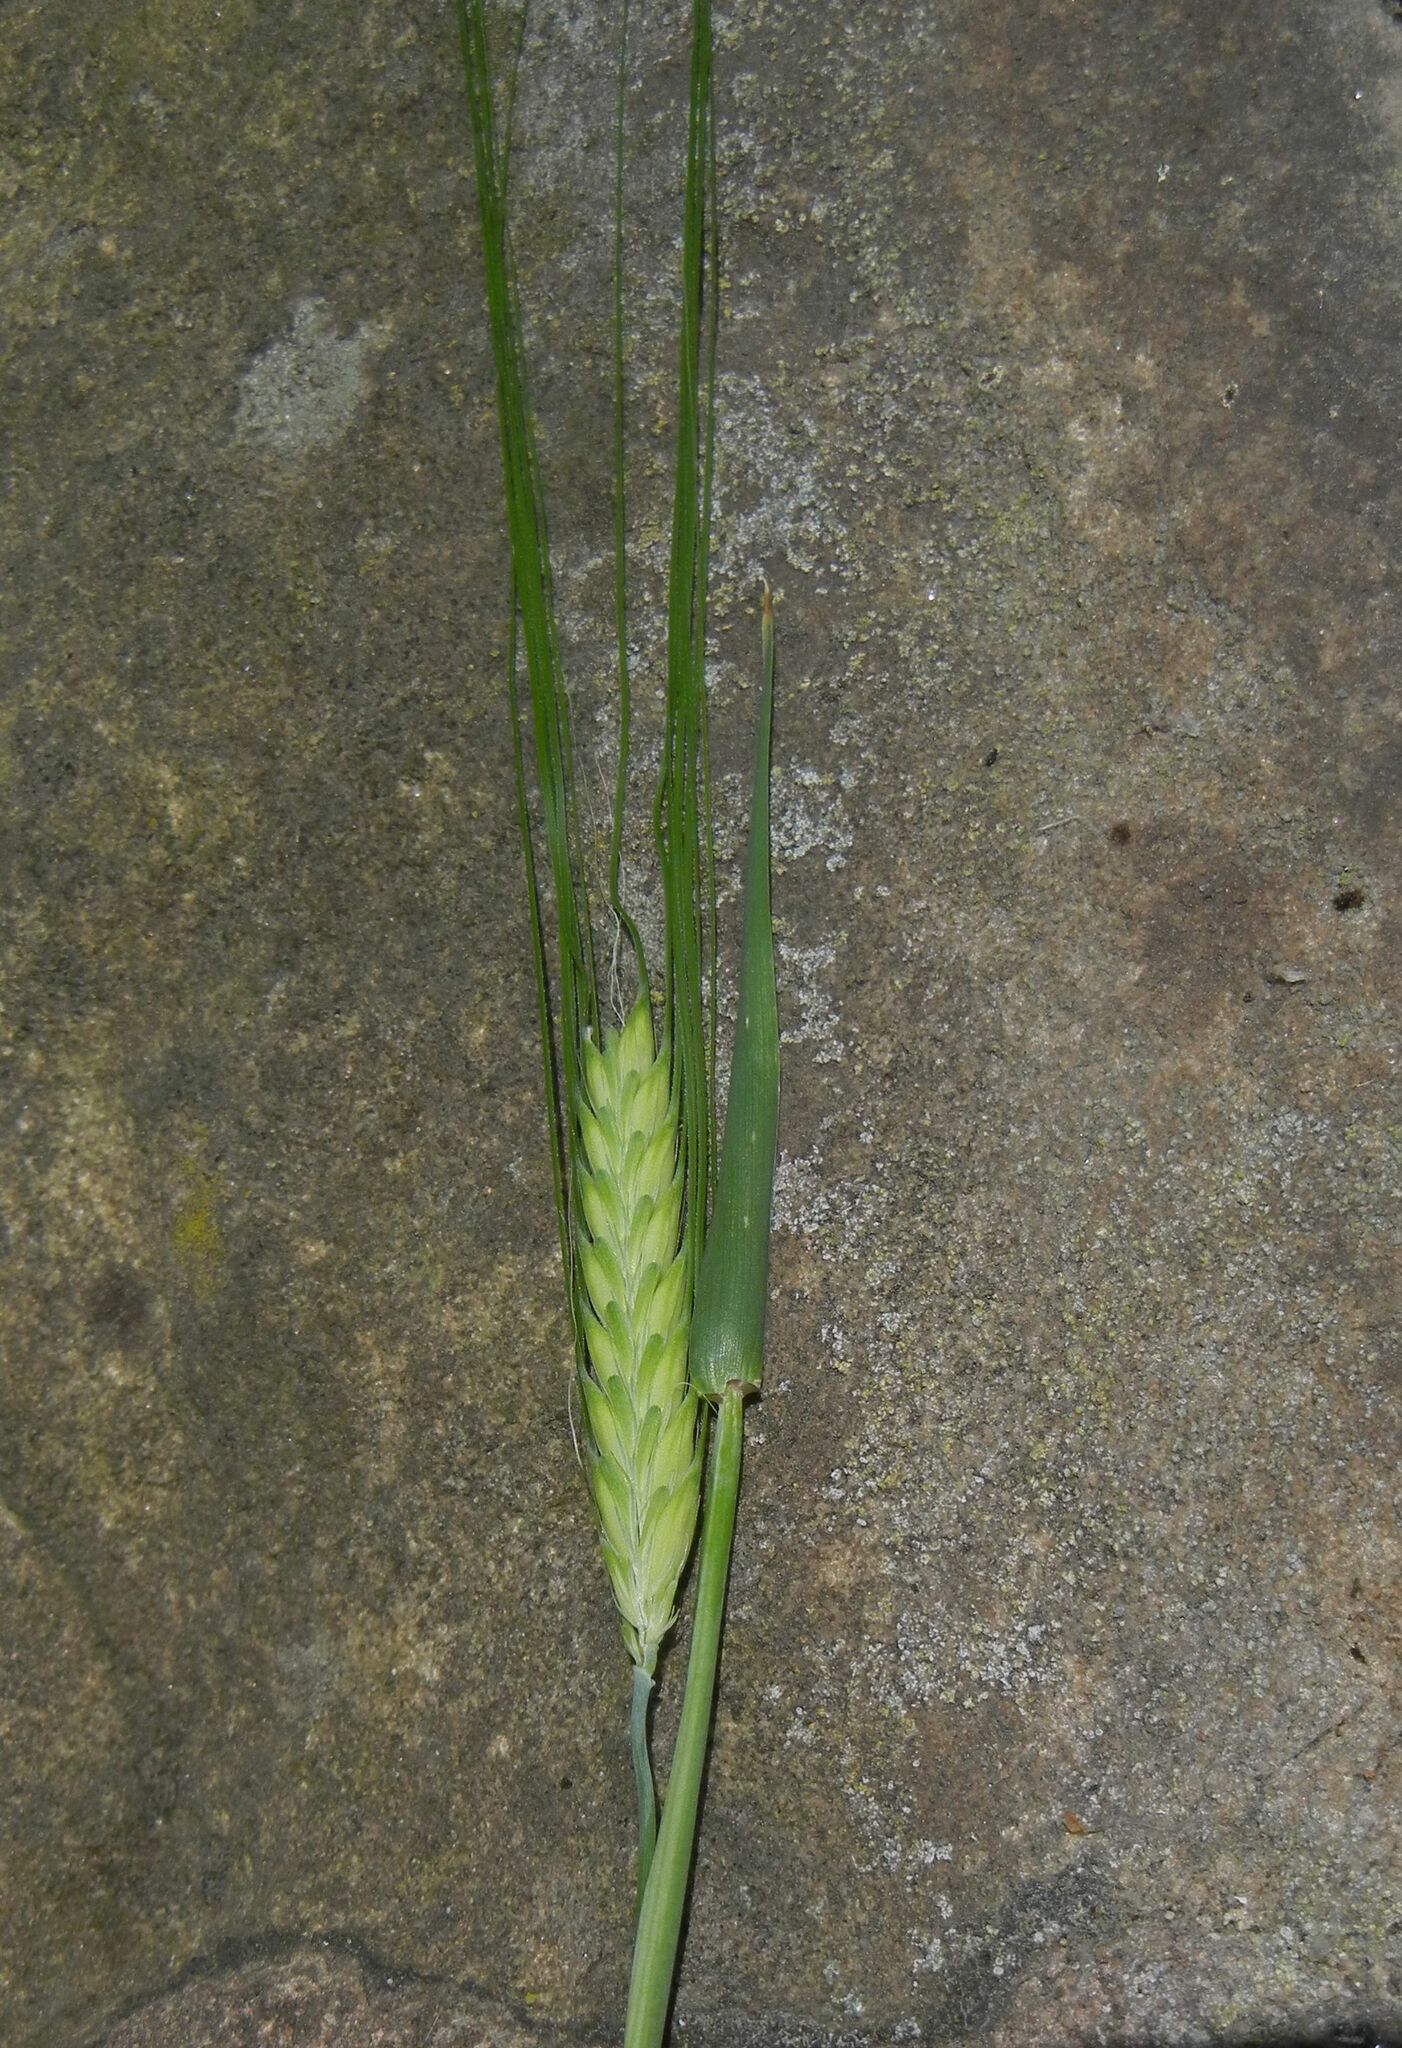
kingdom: Plantae
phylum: Tracheophyta
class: Liliopsida
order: Poales
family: Poaceae
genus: Hordeum
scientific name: Hordeum vulgare
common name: Common barley
